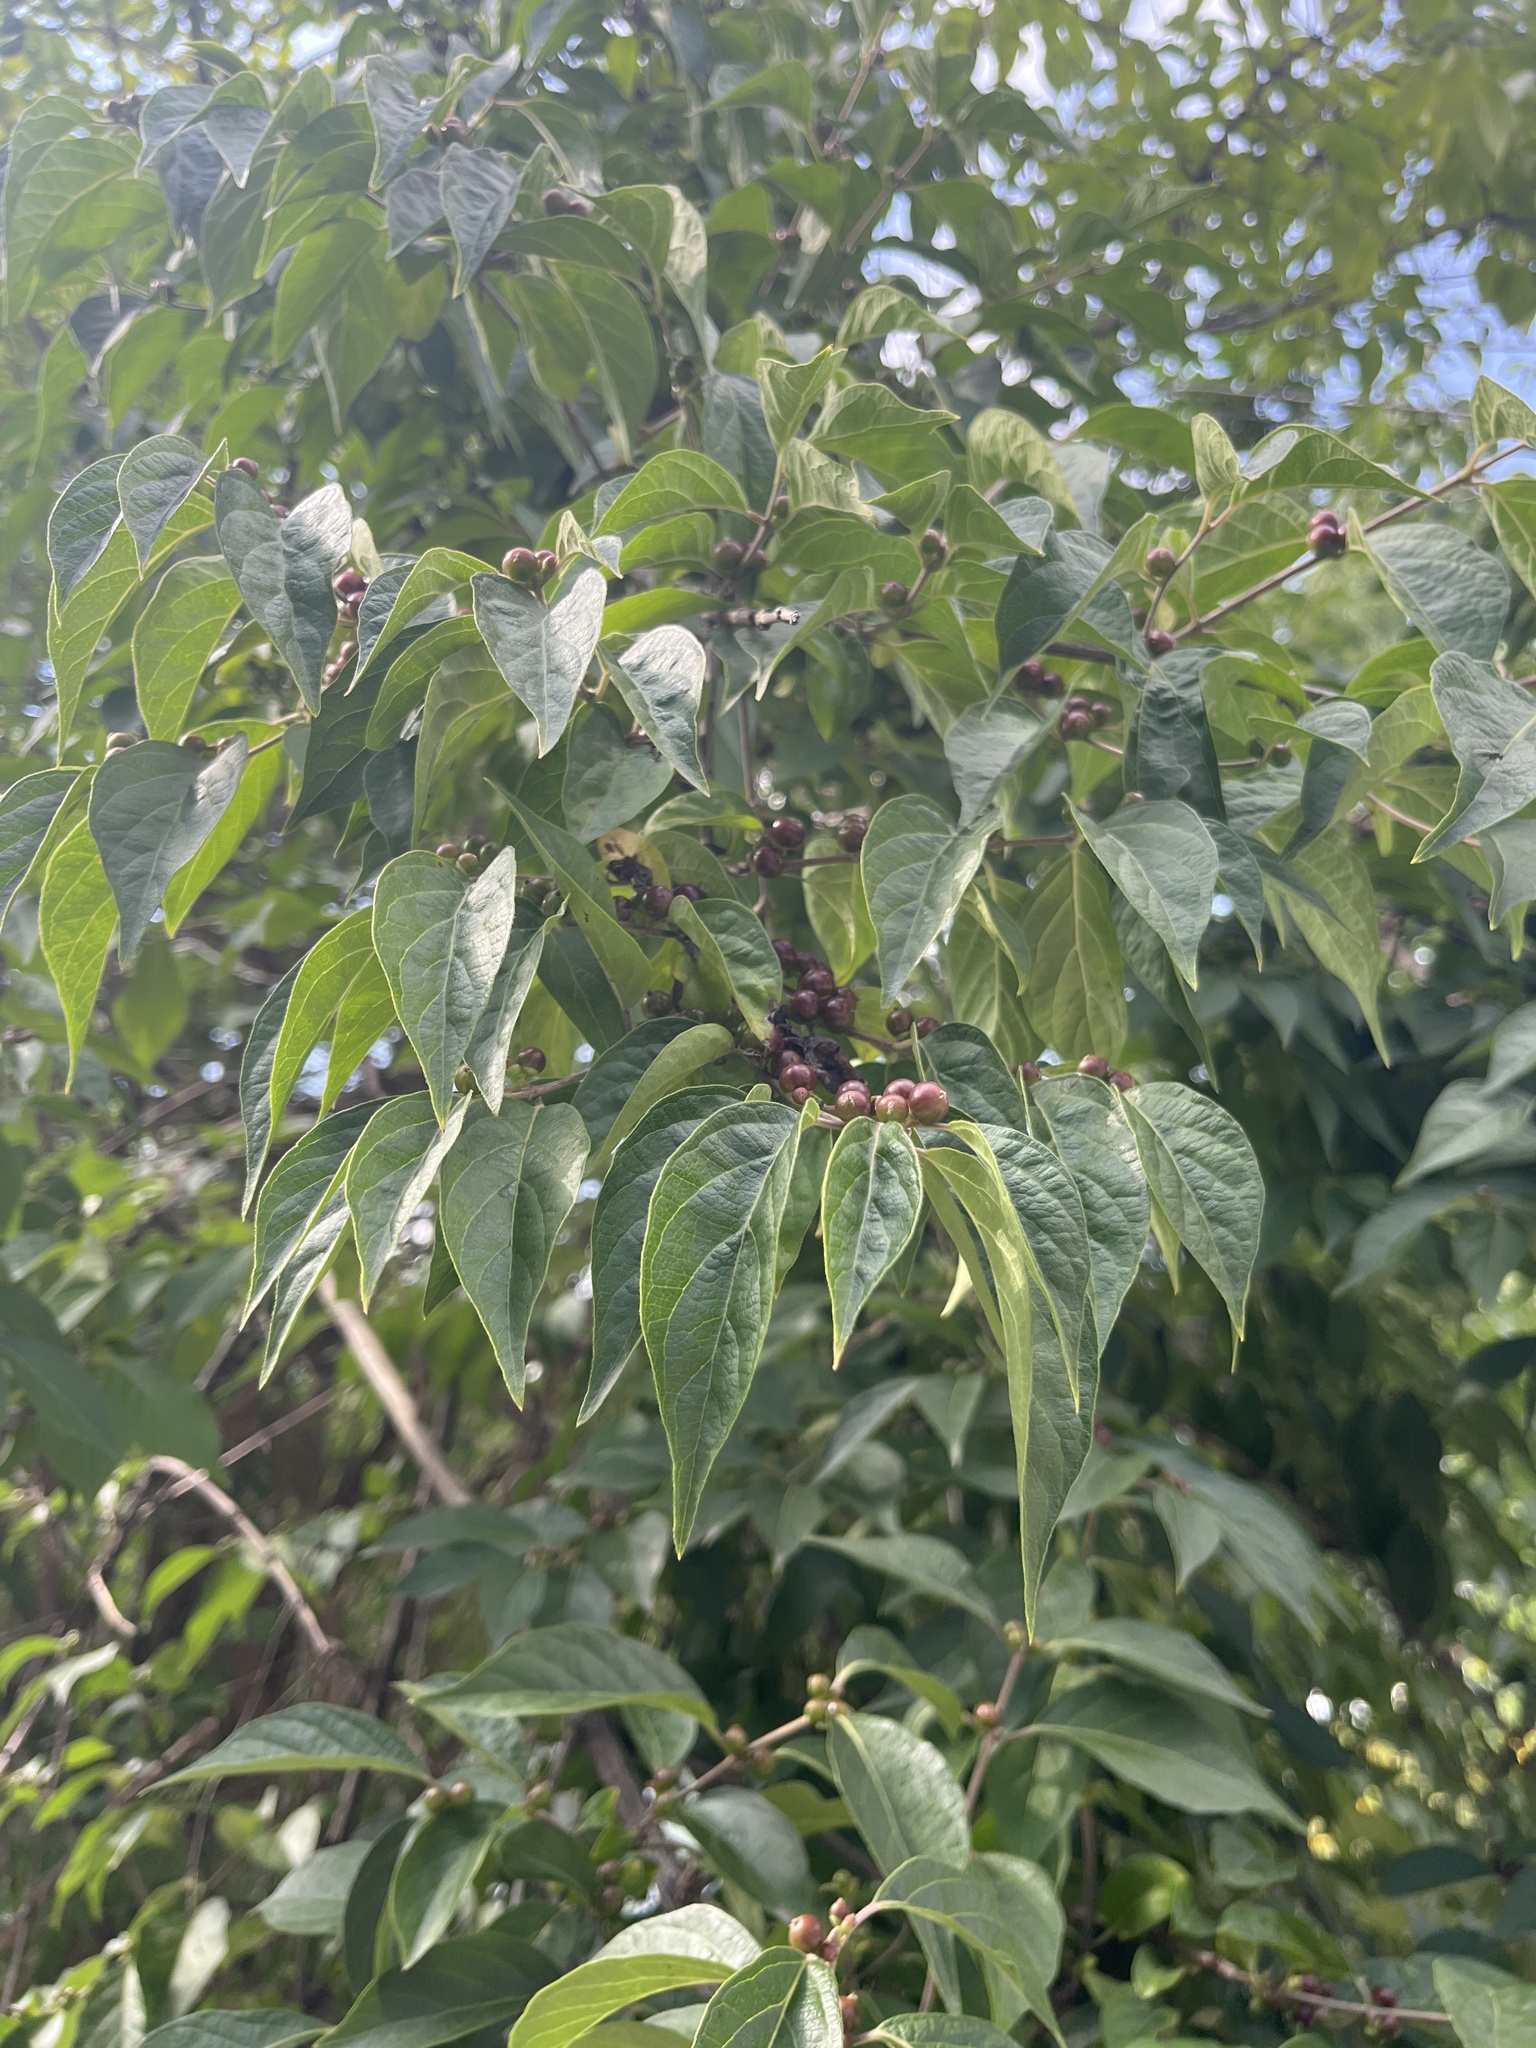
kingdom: Plantae
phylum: Tracheophyta
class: Magnoliopsida
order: Dipsacales
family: Caprifoliaceae
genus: Lonicera
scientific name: Lonicera maackii
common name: Amur honeysuckle
